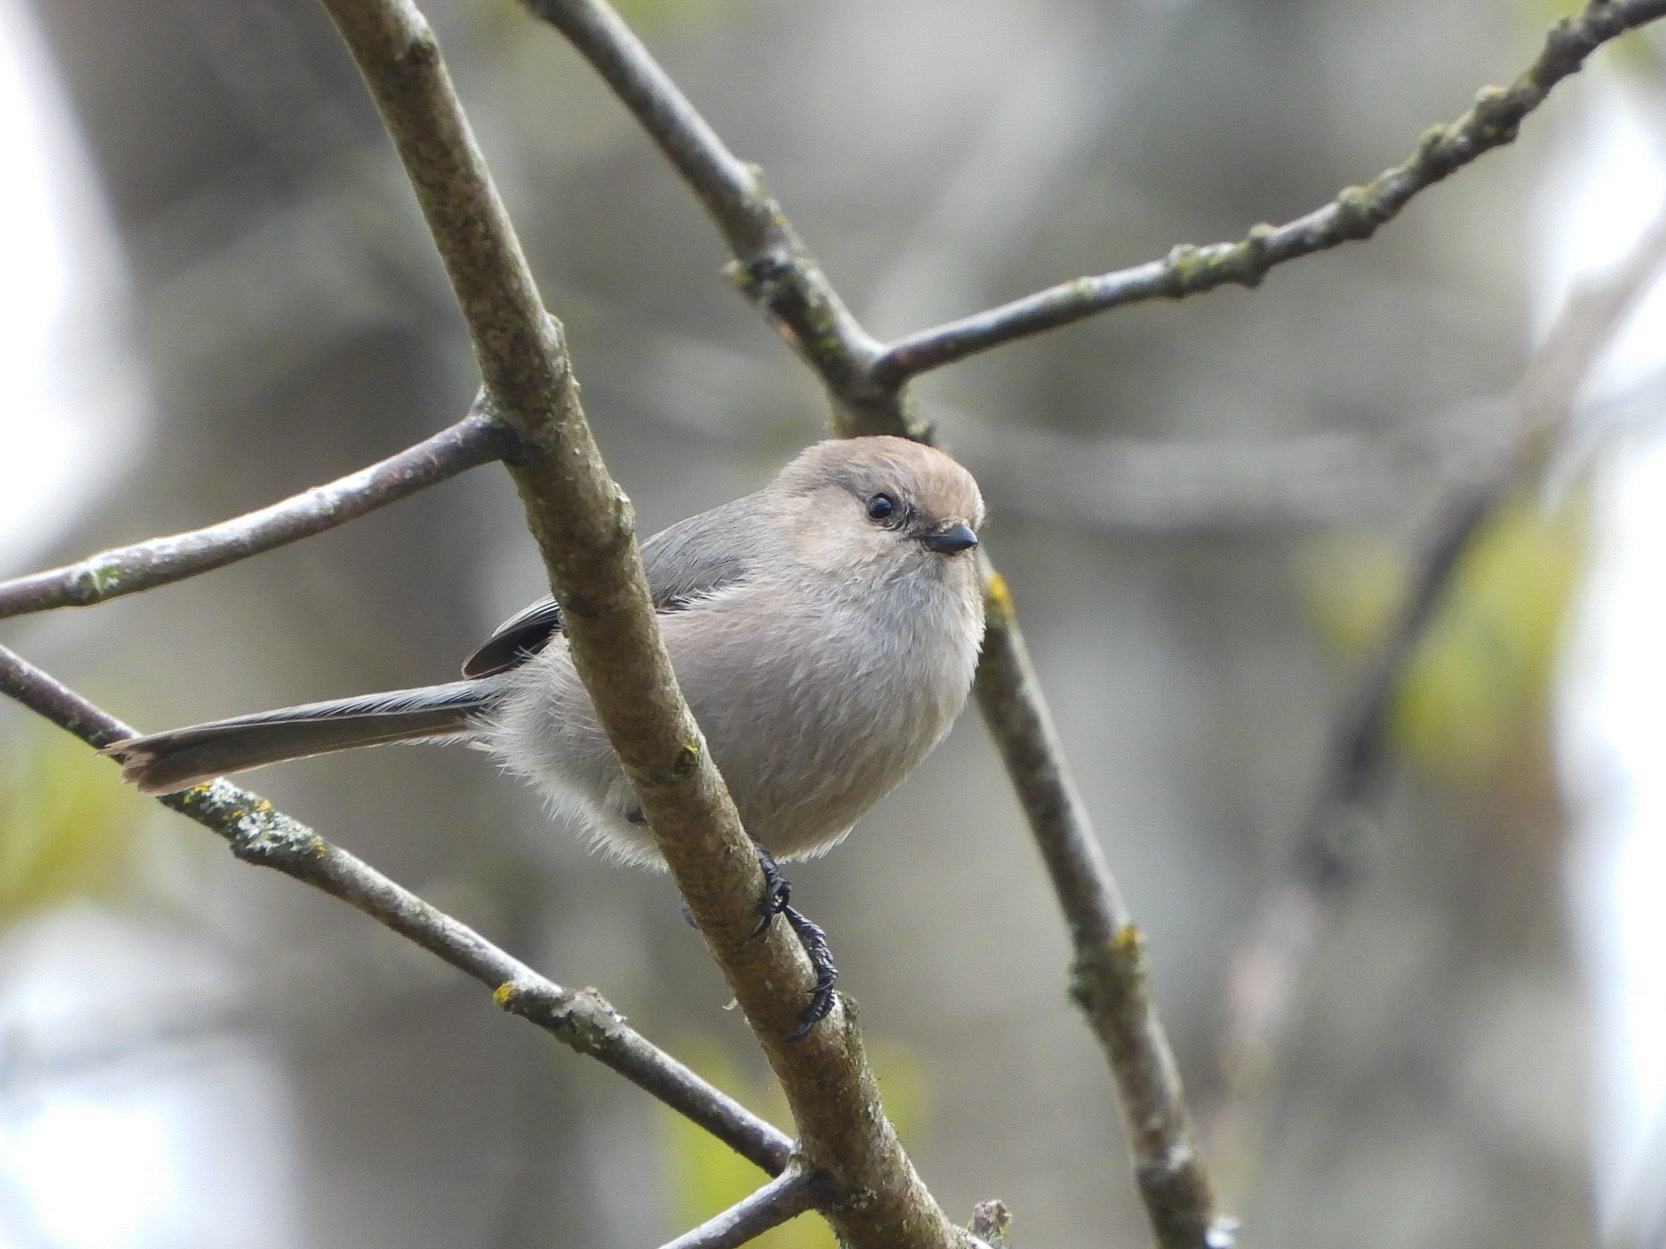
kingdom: Animalia
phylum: Chordata
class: Aves
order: Passeriformes
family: Aegithalidae
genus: Psaltriparus
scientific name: Psaltriparus minimus
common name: American bushtit
